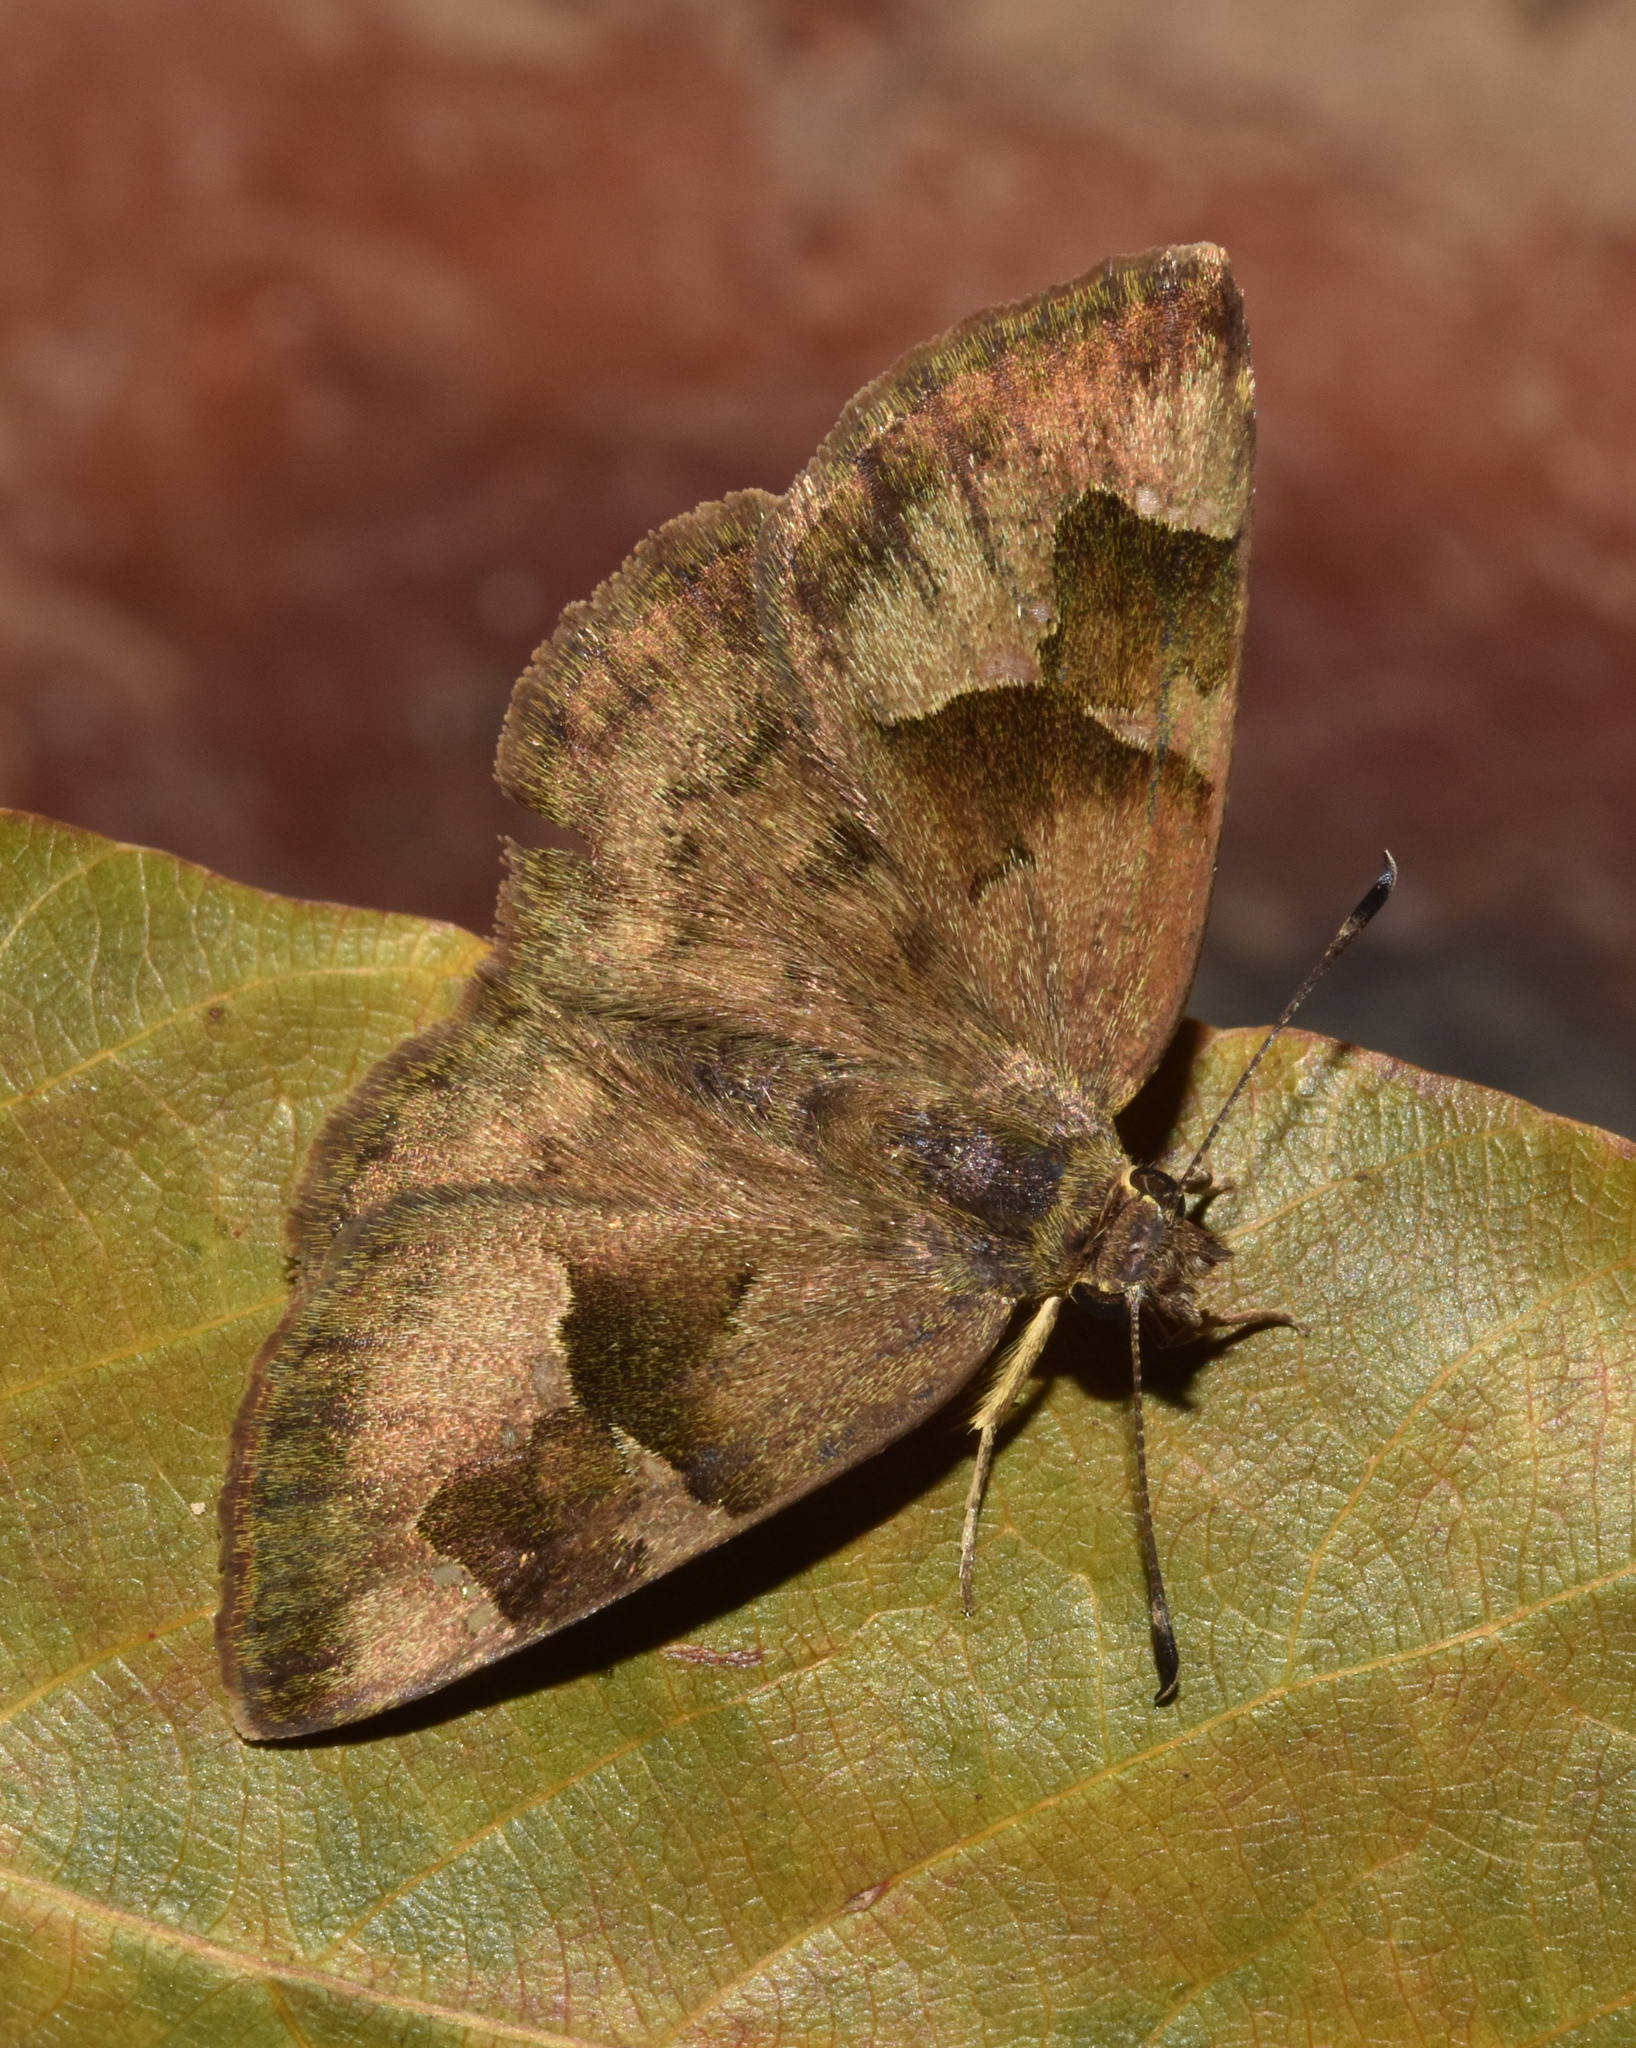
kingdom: Animalia
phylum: Arthropoda
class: Insecta
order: Lepidoptera
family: Hesperiidae
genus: Sarangesa
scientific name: Sarangesa phidyle
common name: Small elfin
